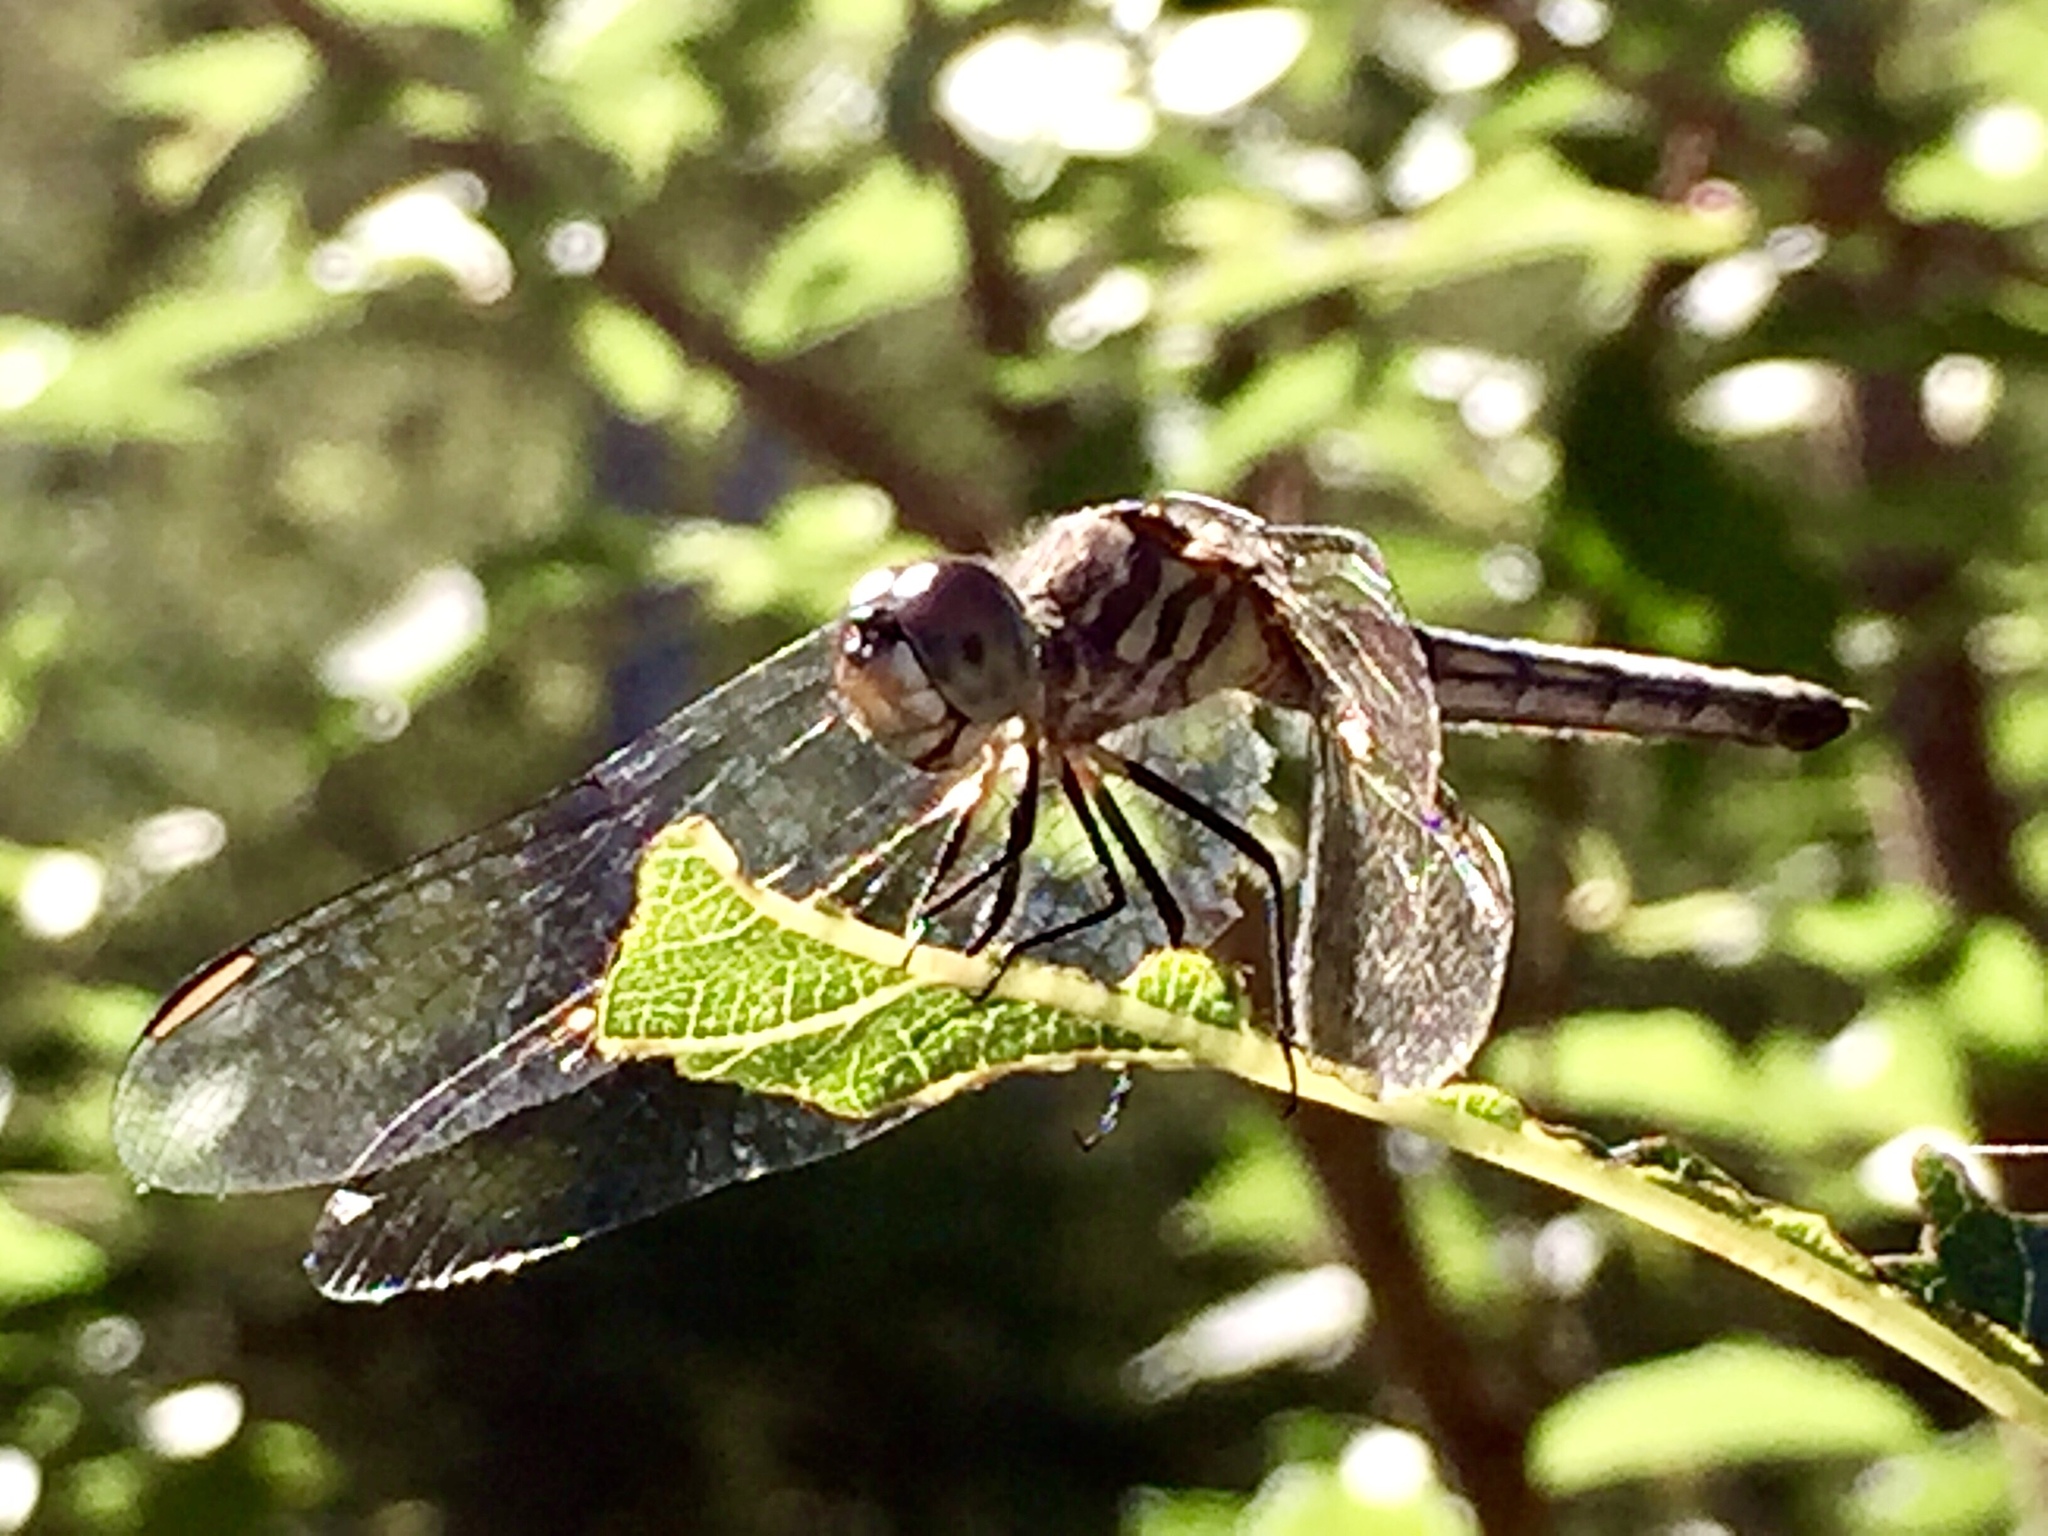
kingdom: Animalia
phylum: Arthropoda
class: Insecta
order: Odonata
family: Libellulidae
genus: Pachydiplax
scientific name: Pachydiplax longipennis
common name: Blue dasher
